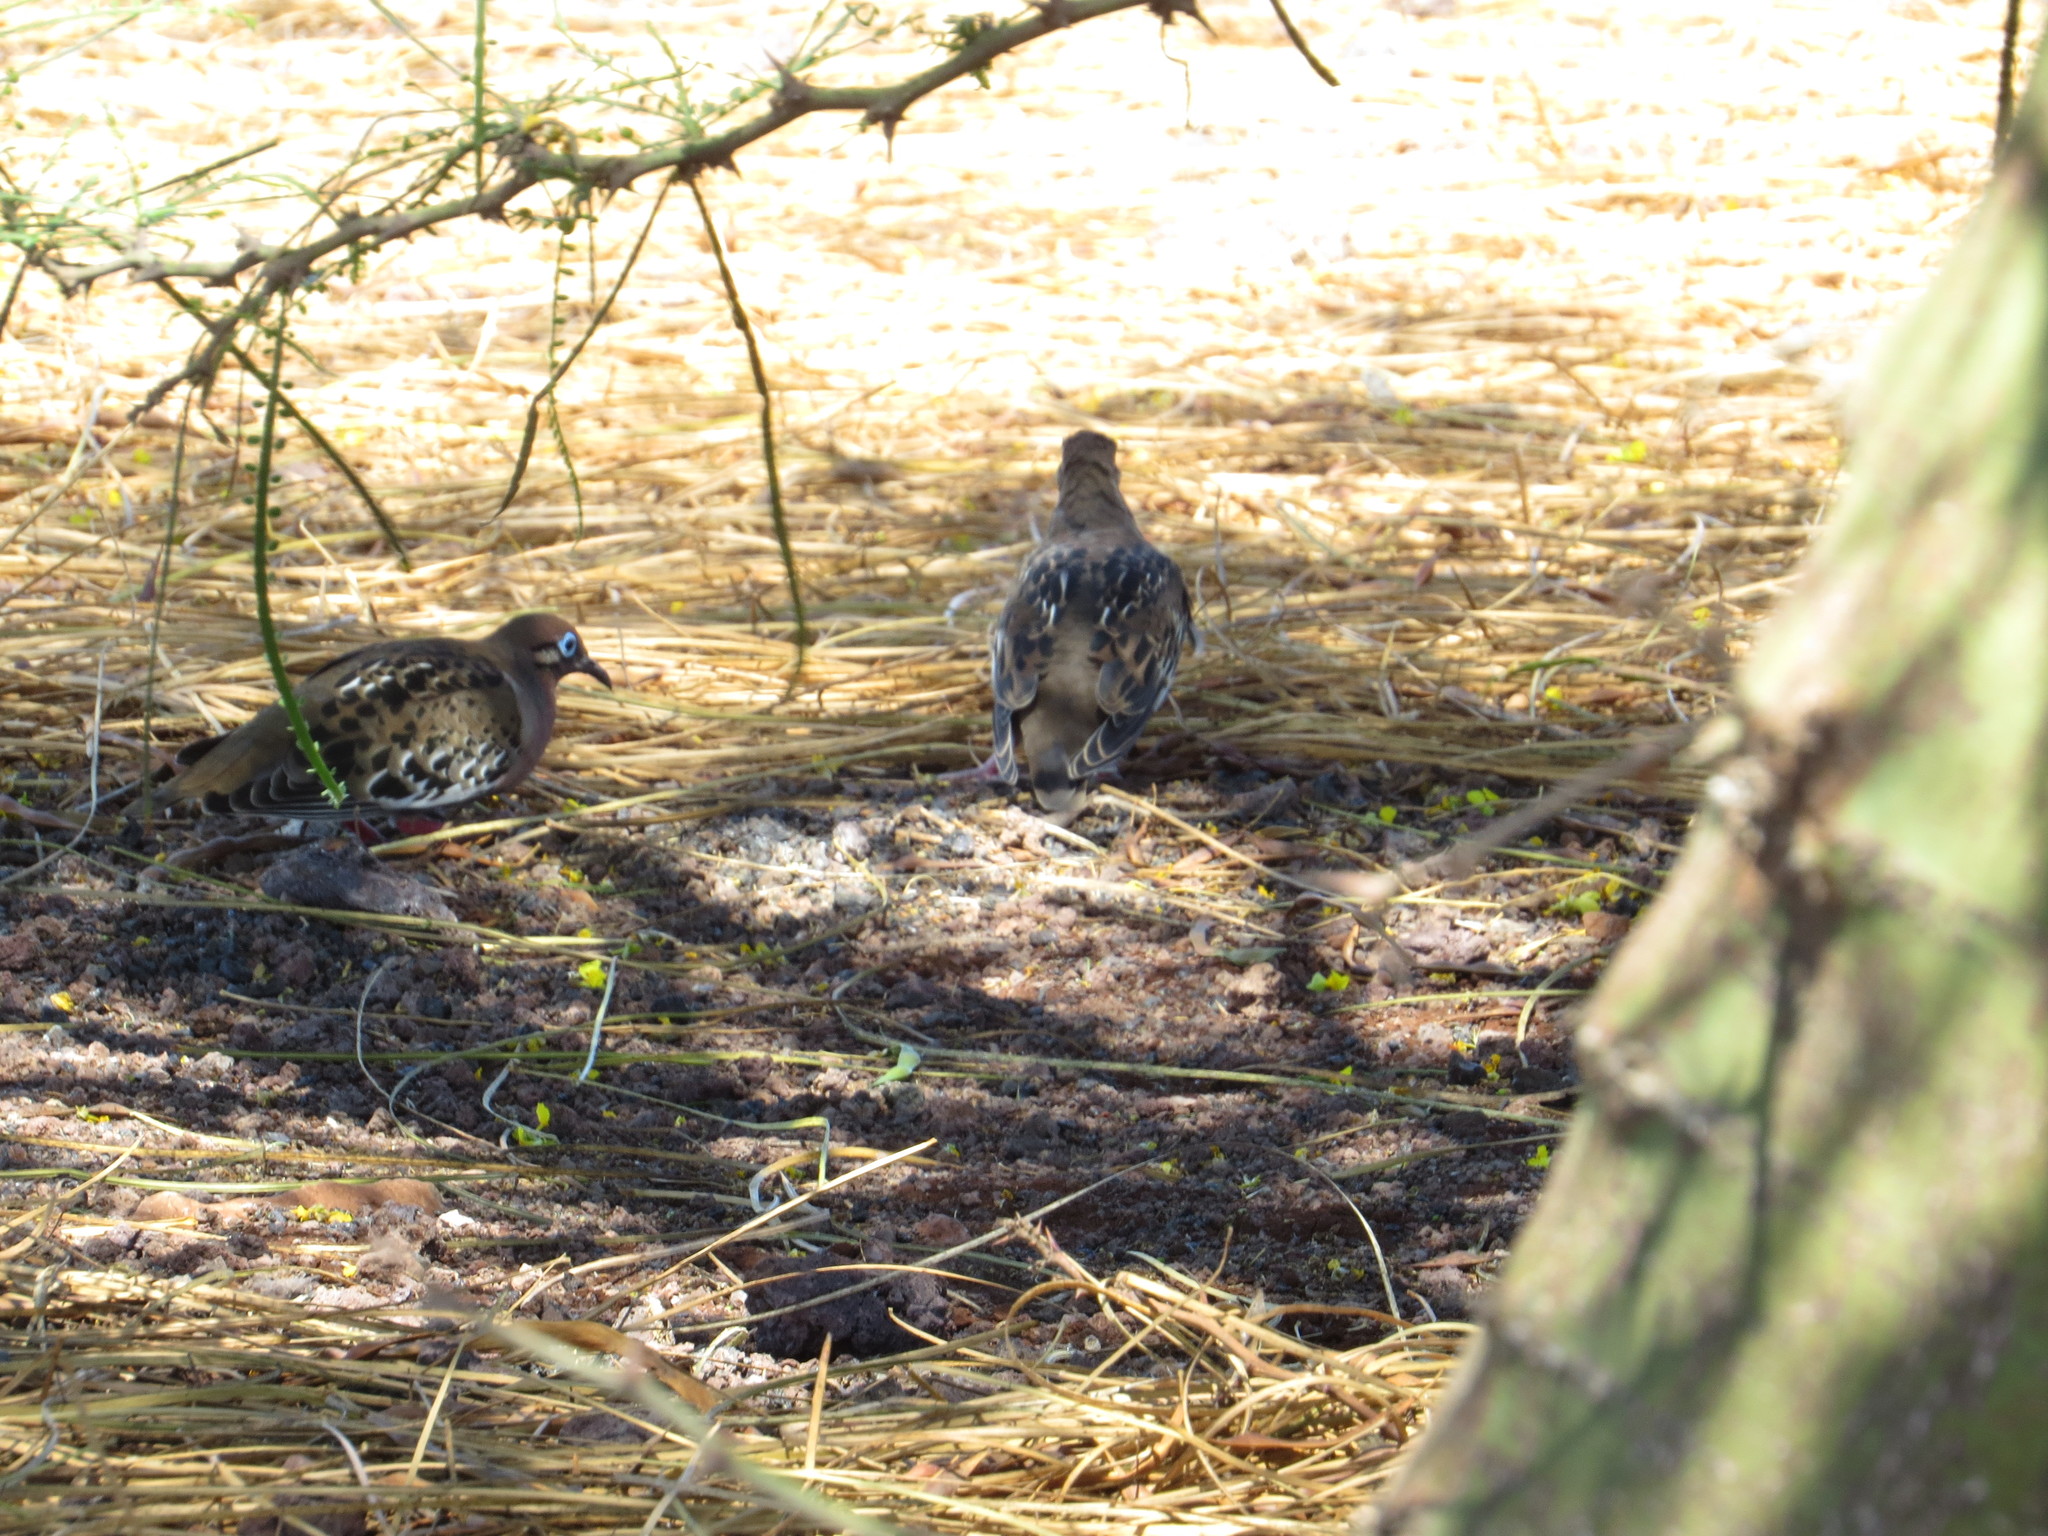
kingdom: Animalia
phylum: Chordata
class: Aves
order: Columbiformes
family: Columbidae
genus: Zenaida
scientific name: Zenaida galapagoensis
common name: Galapagos dove
